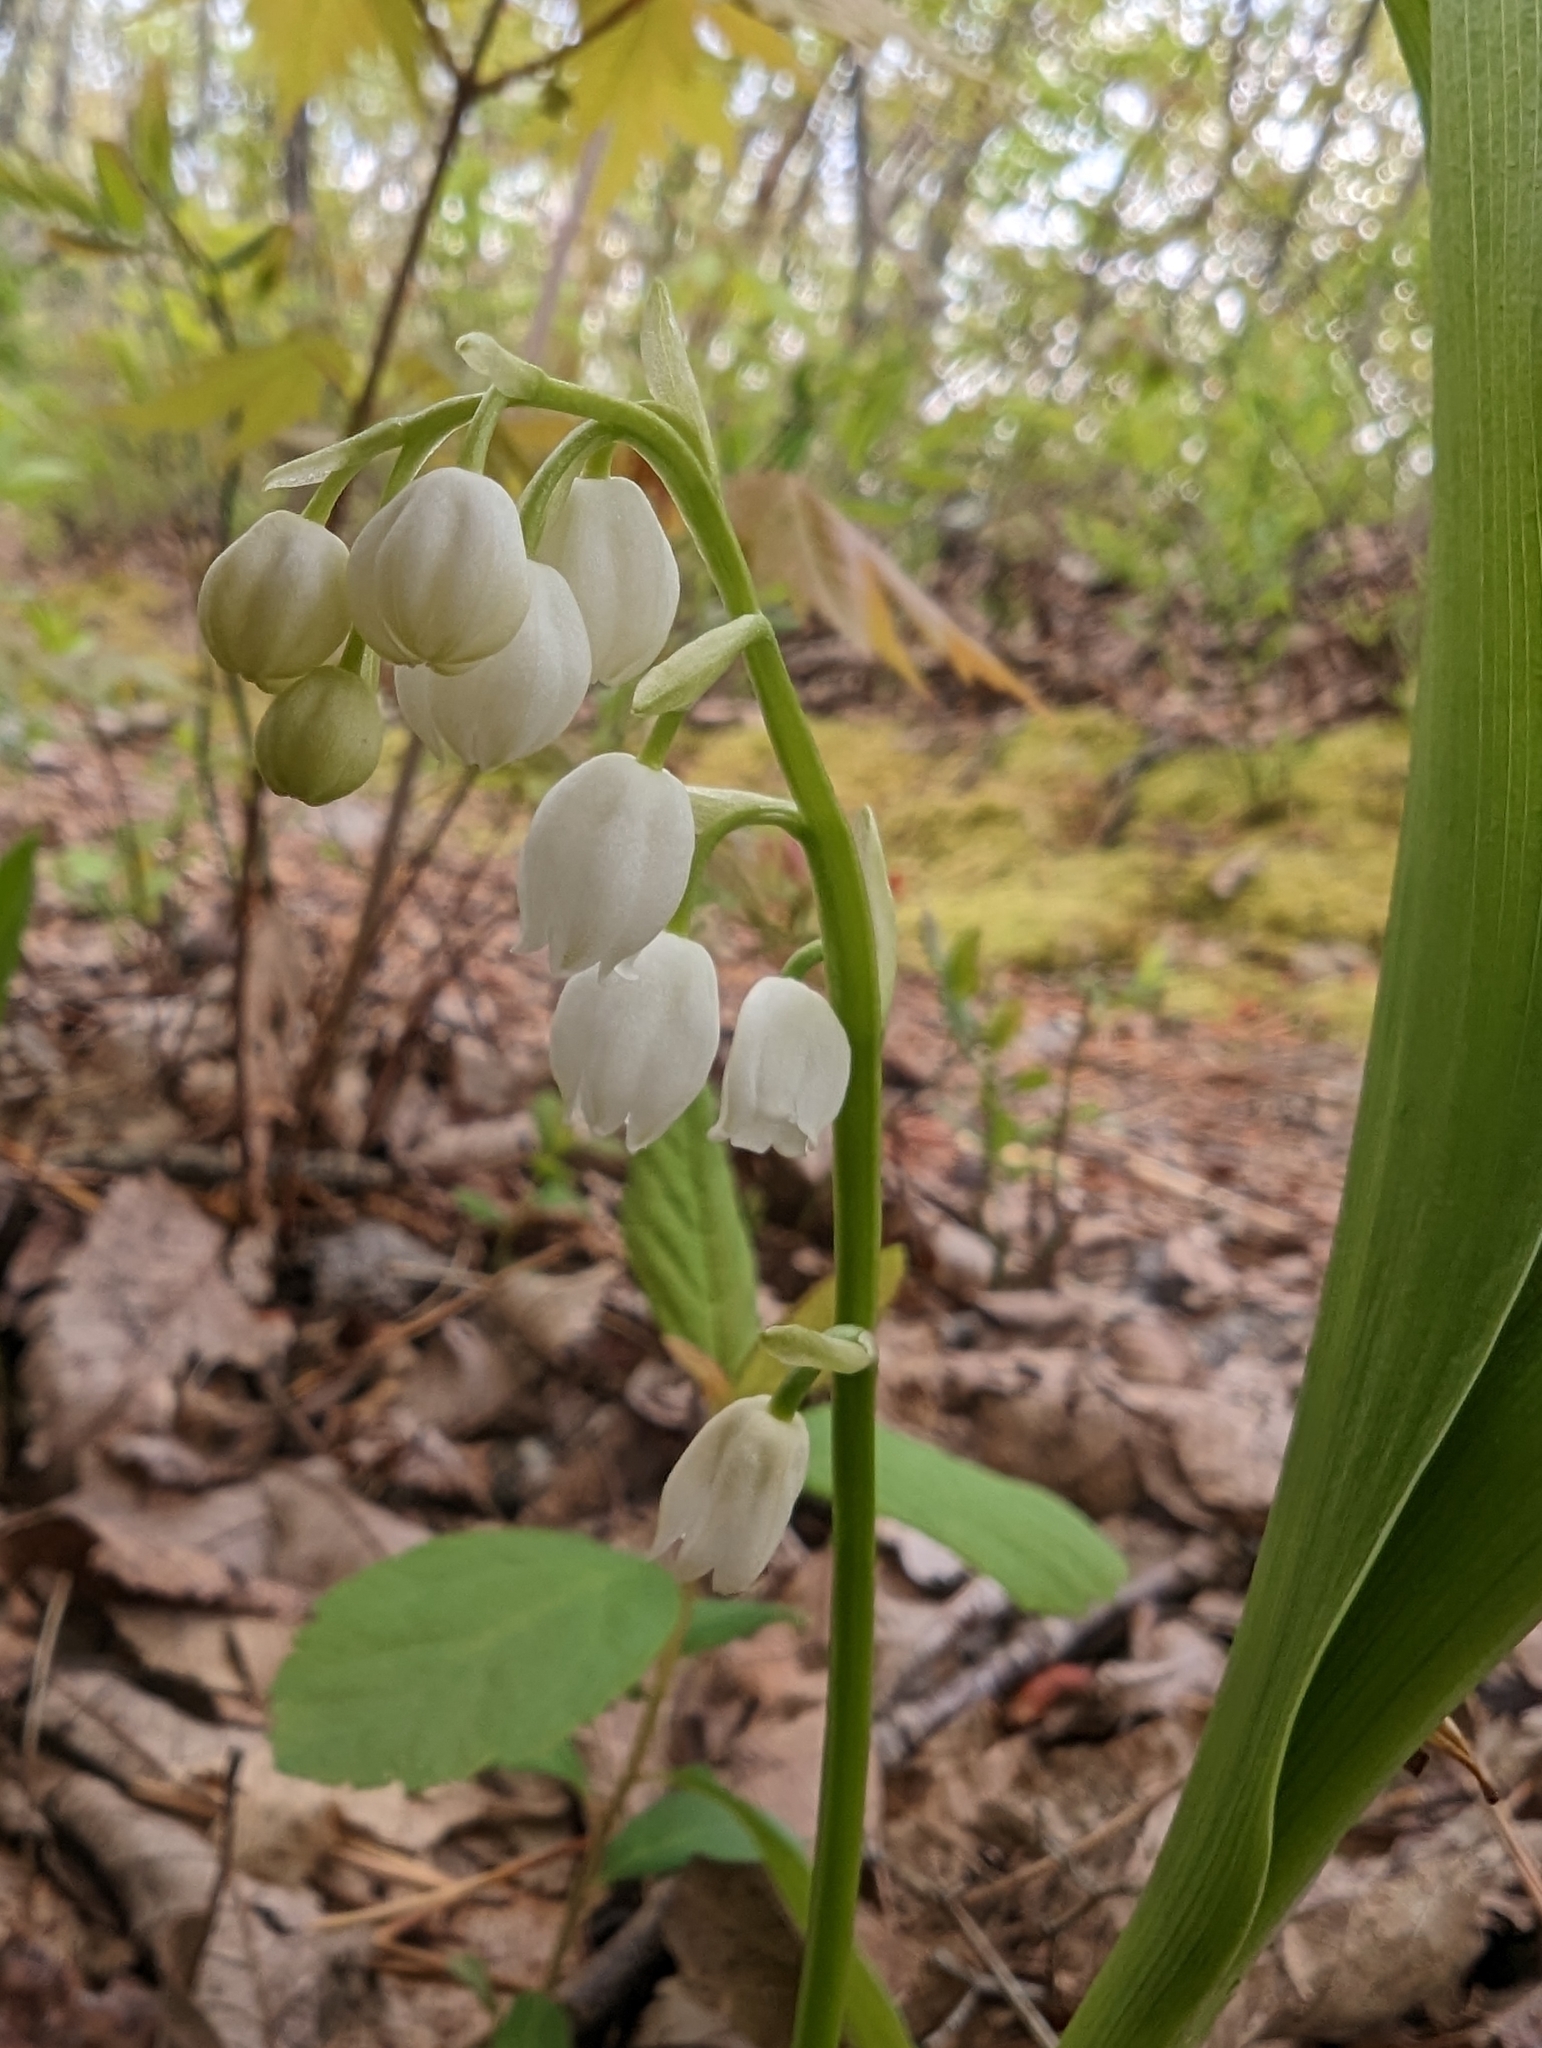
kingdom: Plantae
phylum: Tracheophyta
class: Liliopsida
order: Asparagales
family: Asparagaceae
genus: Convallaria
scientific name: Convallaria pseudomajalis
